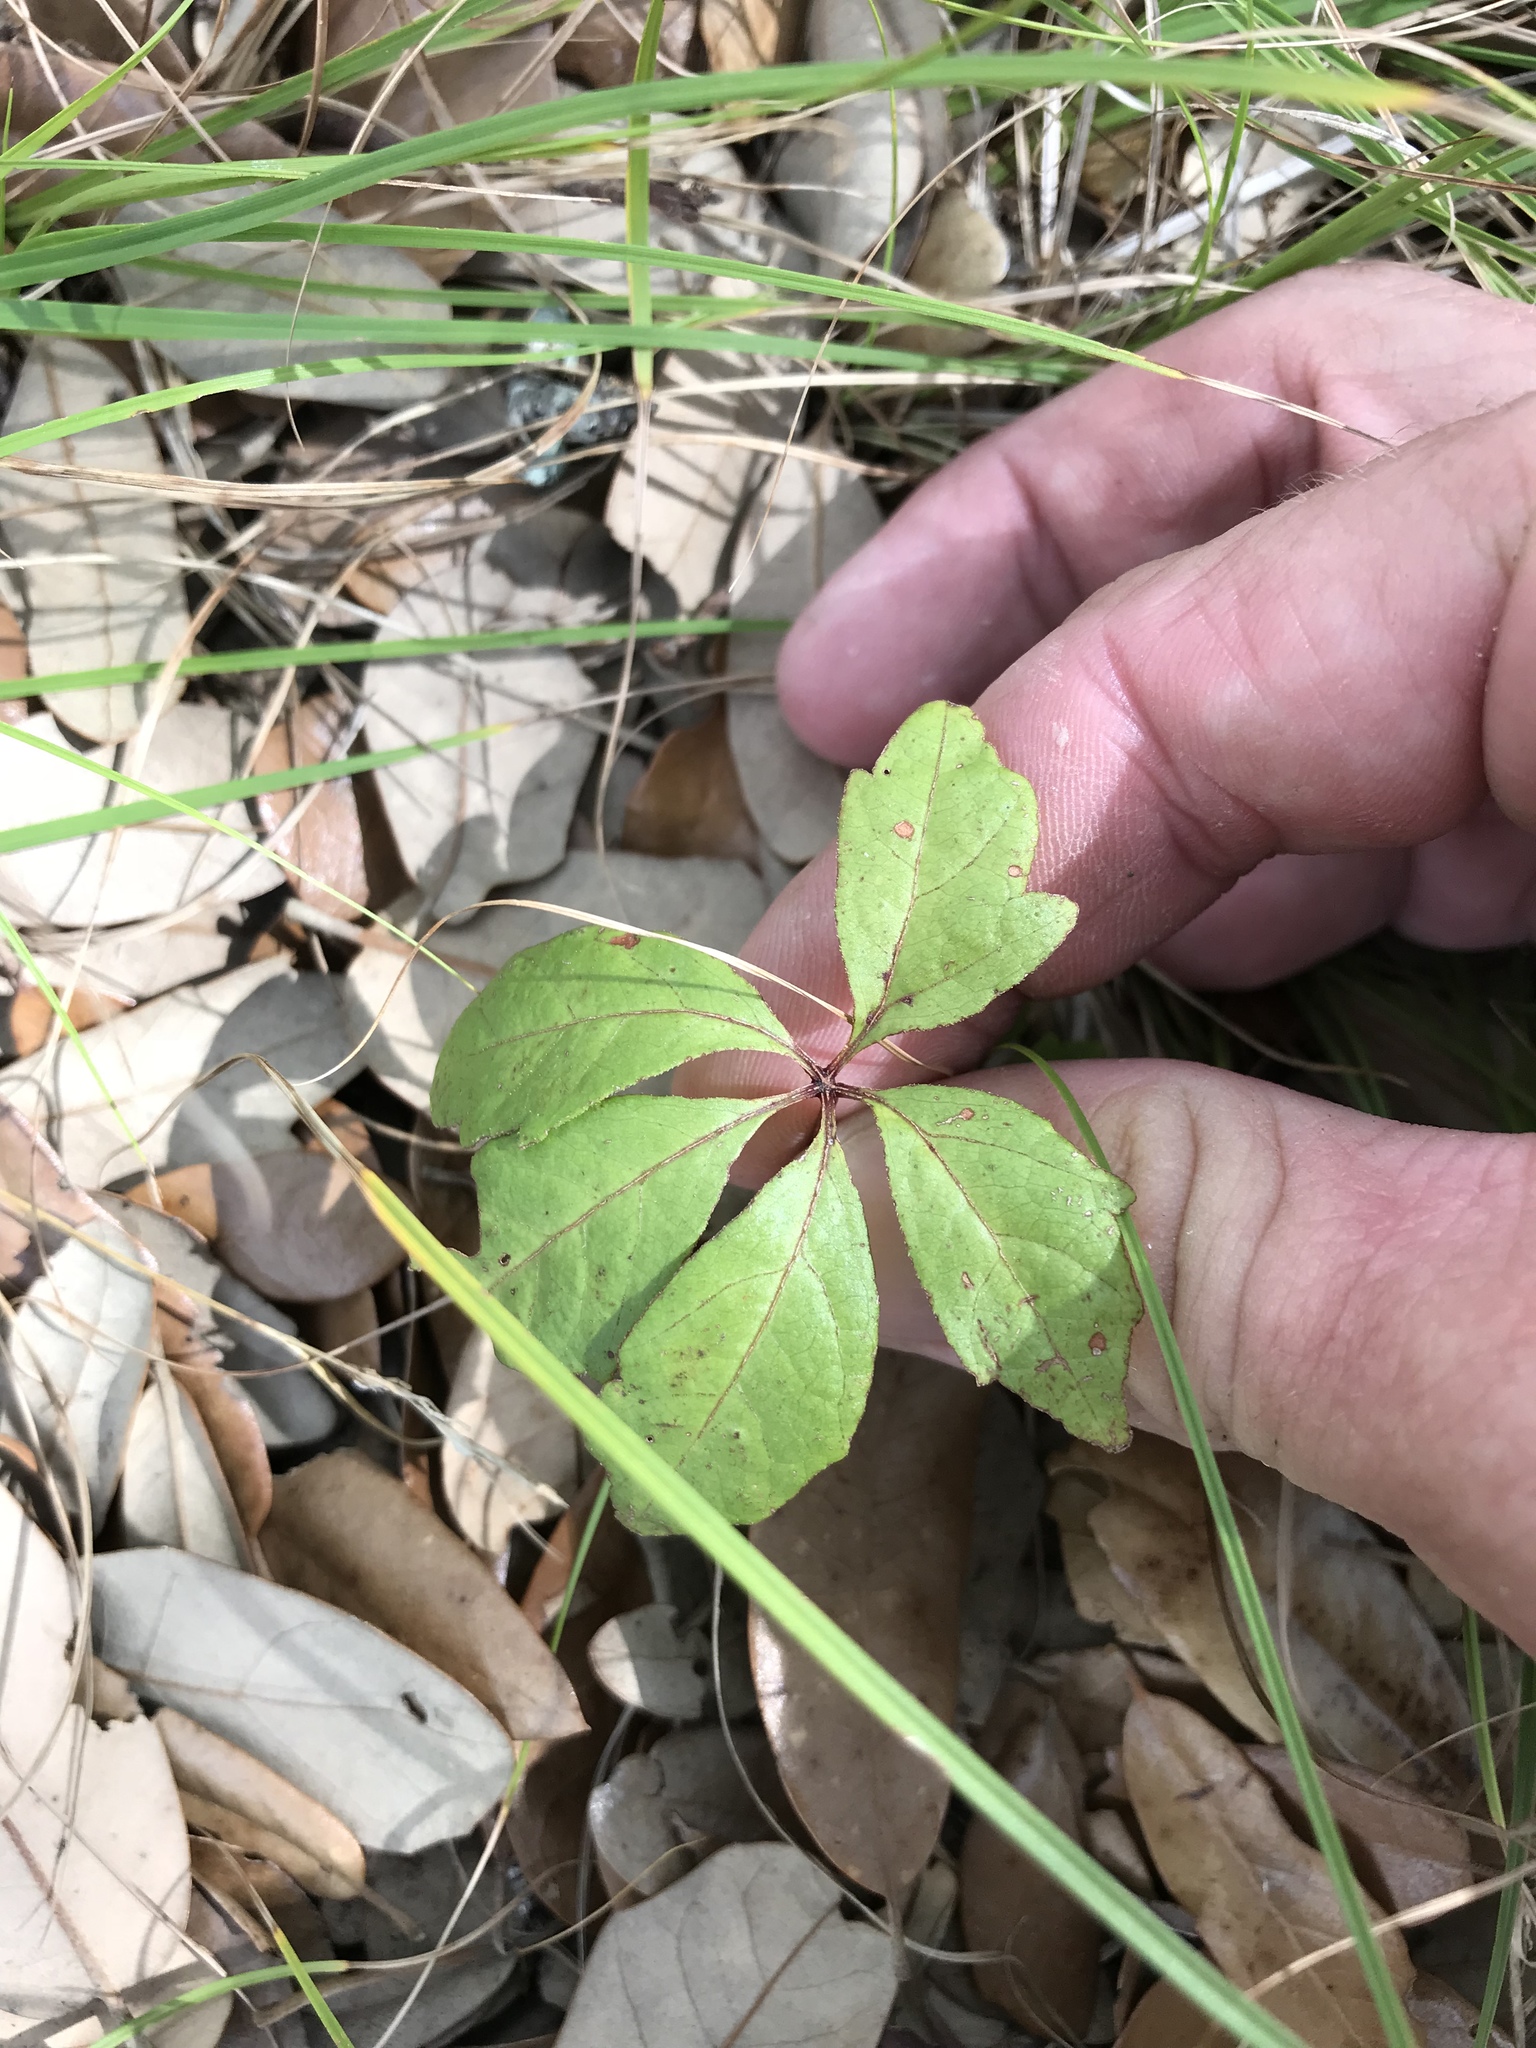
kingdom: Plantae
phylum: Tracheophyta
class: Magnoliopsida
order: Vitales
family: Vitaceae
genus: Parthenocissus
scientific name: Parthenocissus quinquefolia
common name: Virginia-creeper
